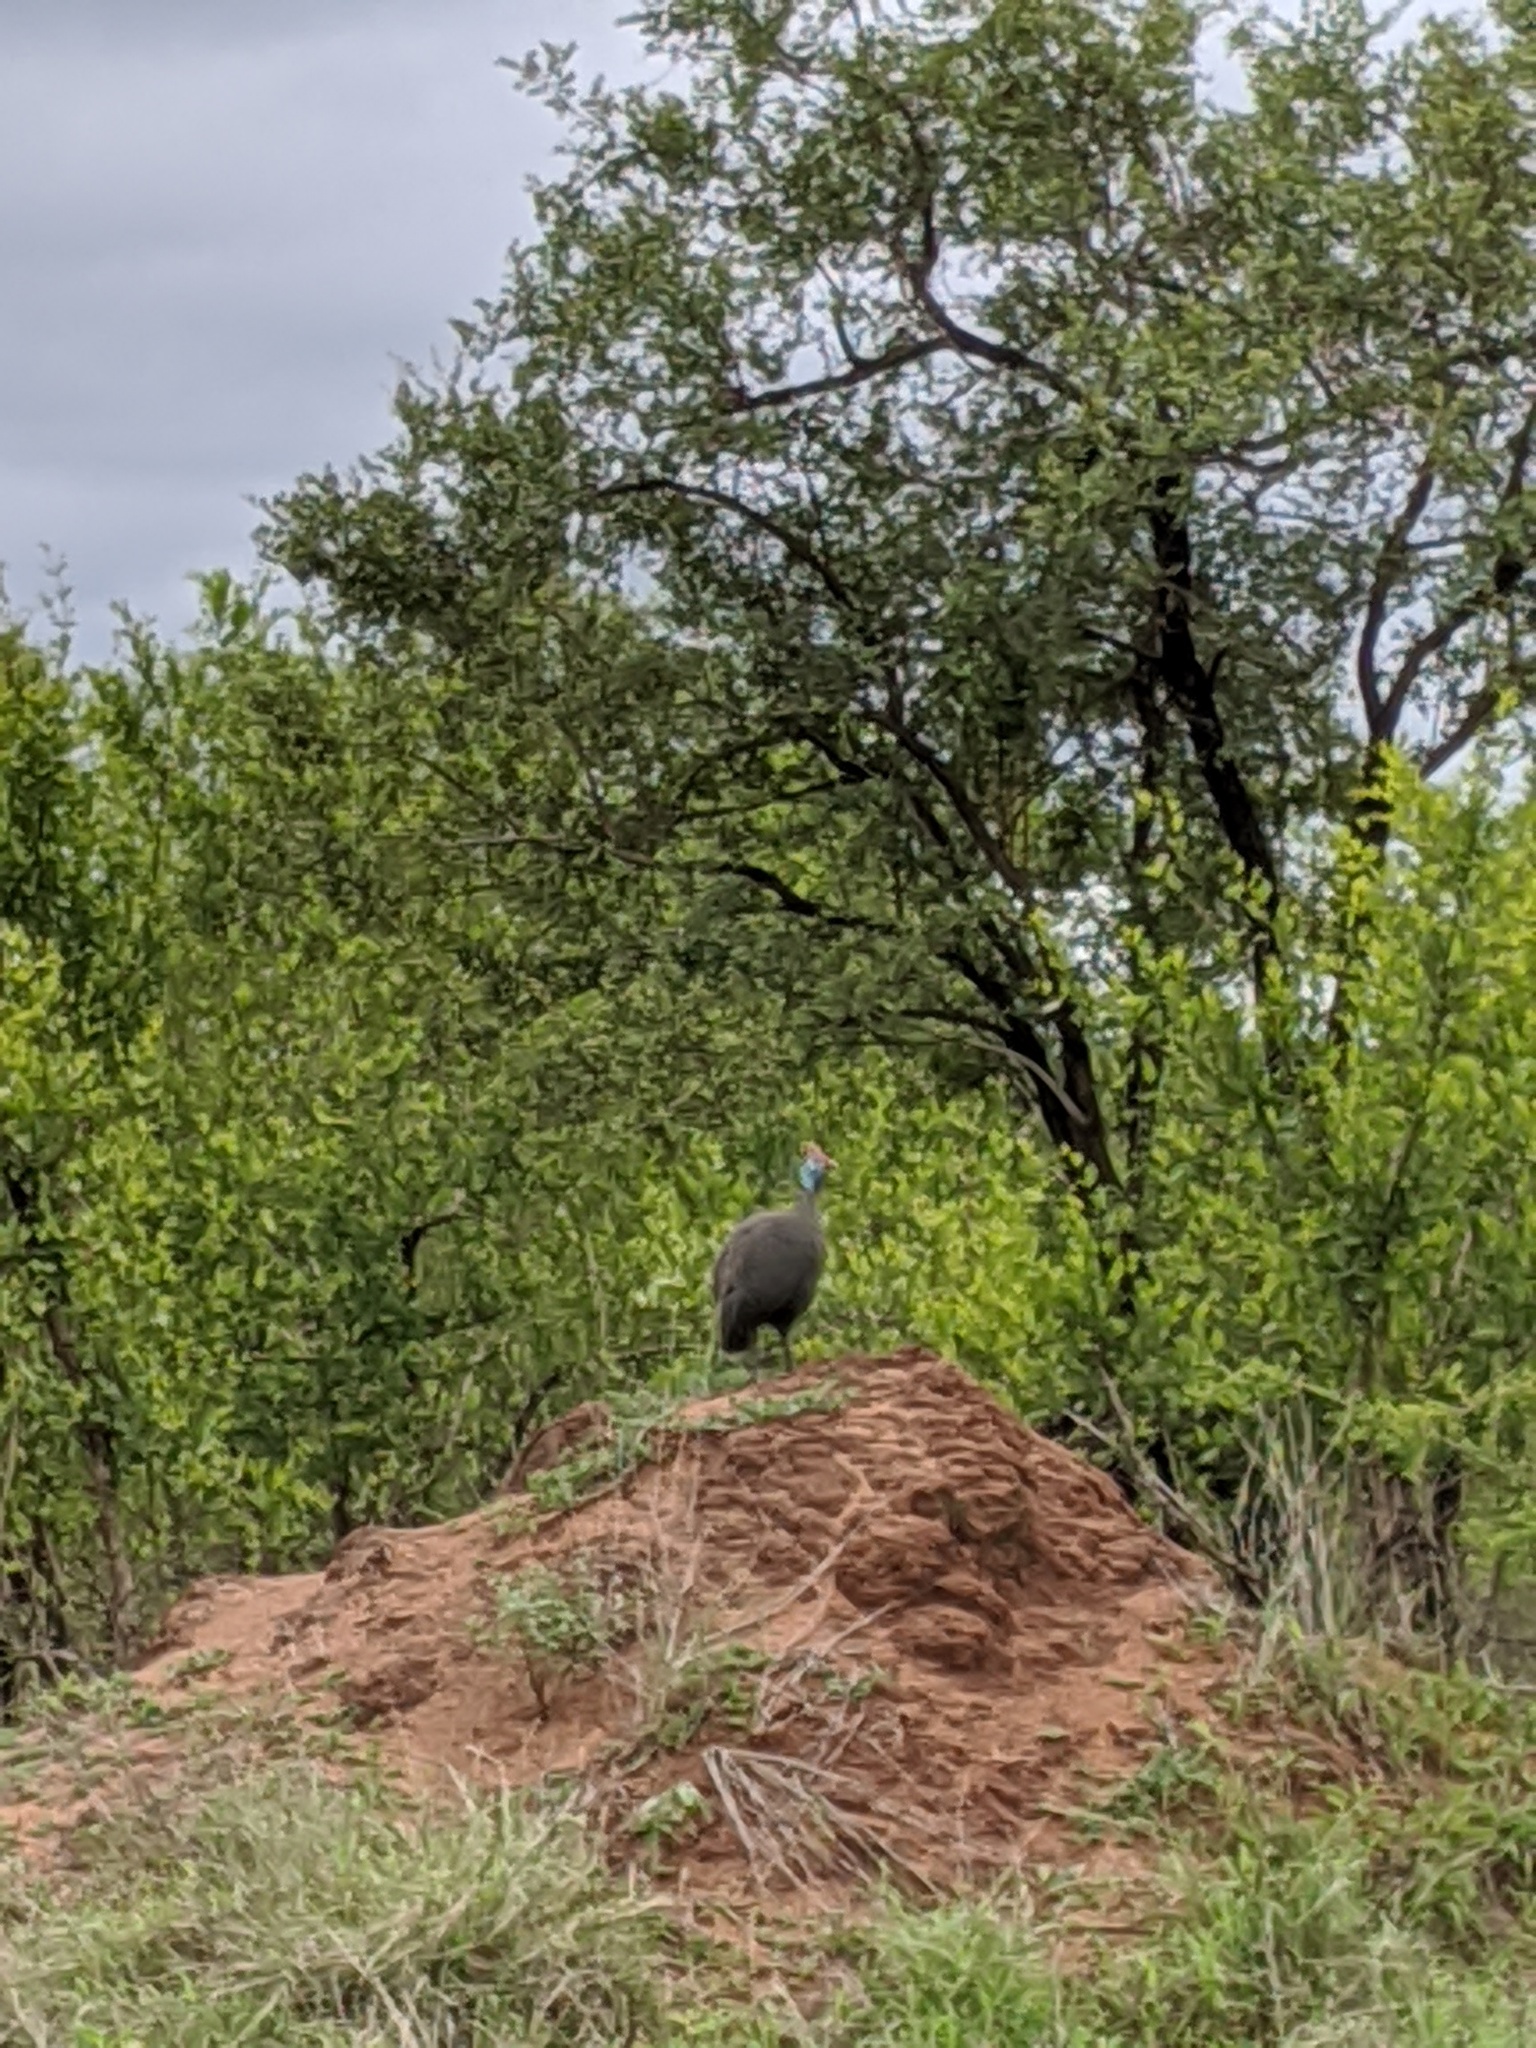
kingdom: Animalia
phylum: Chordata
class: Aves
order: Galliformes
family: Numididae
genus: Numida
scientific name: Numida meleagris
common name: Helmeted guineafowl
